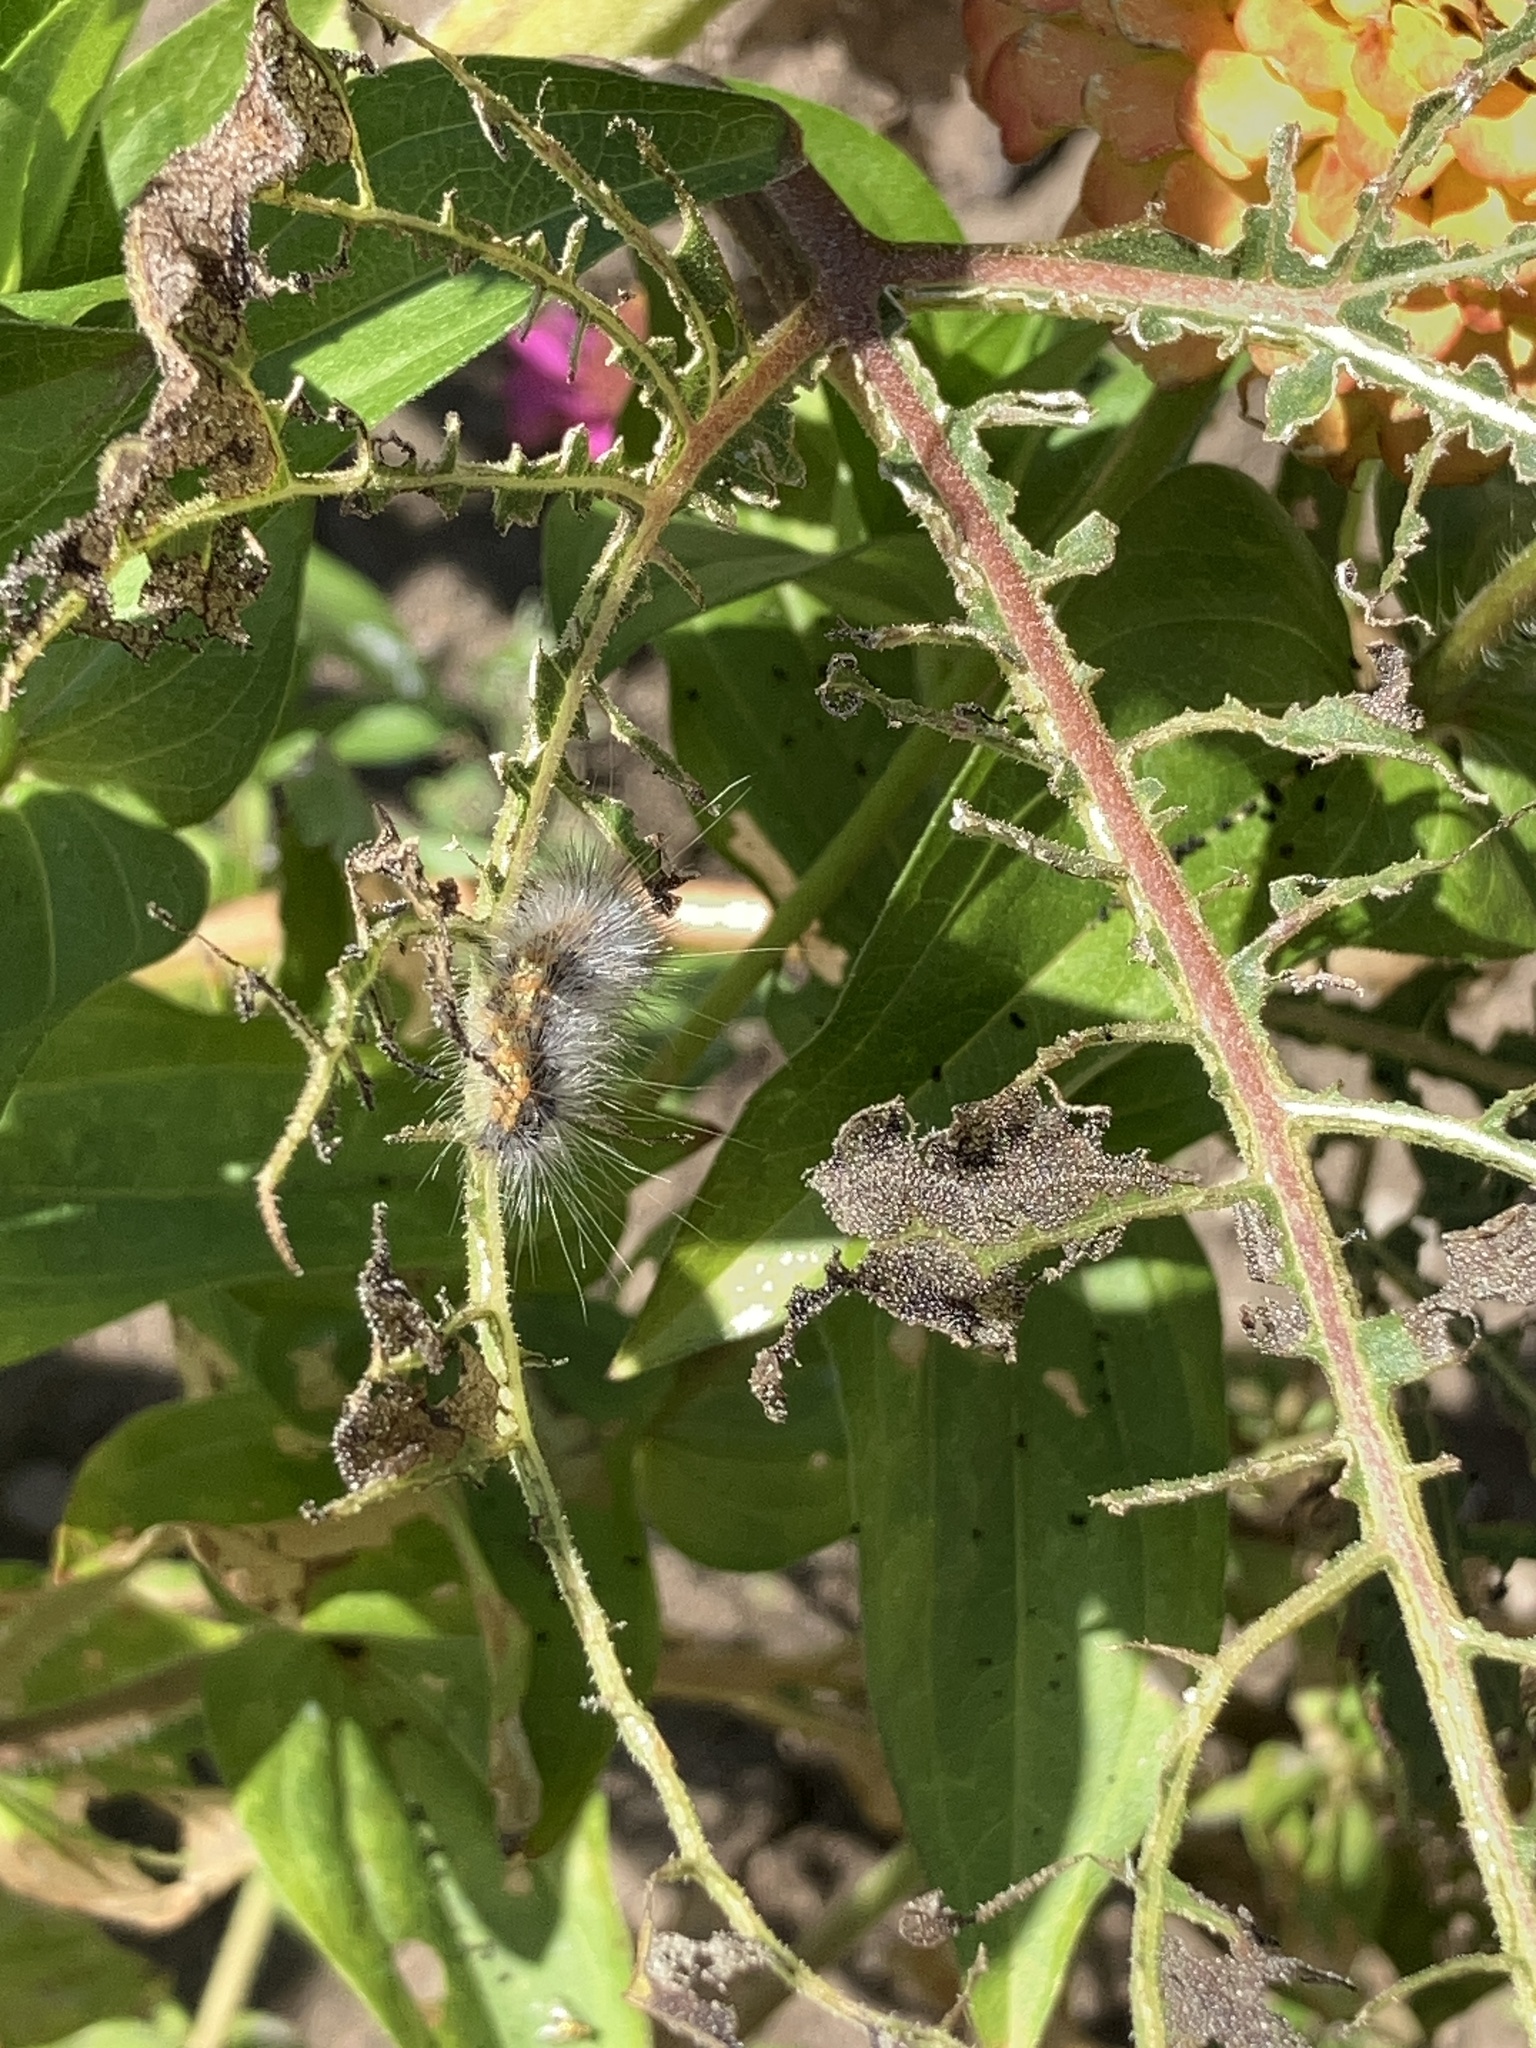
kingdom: Animalia
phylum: Arthropoda
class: Insecta
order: Lepidoptera
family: Erebidae
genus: Estigmene
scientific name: Estigmene acrea
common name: Salt marsh moth
